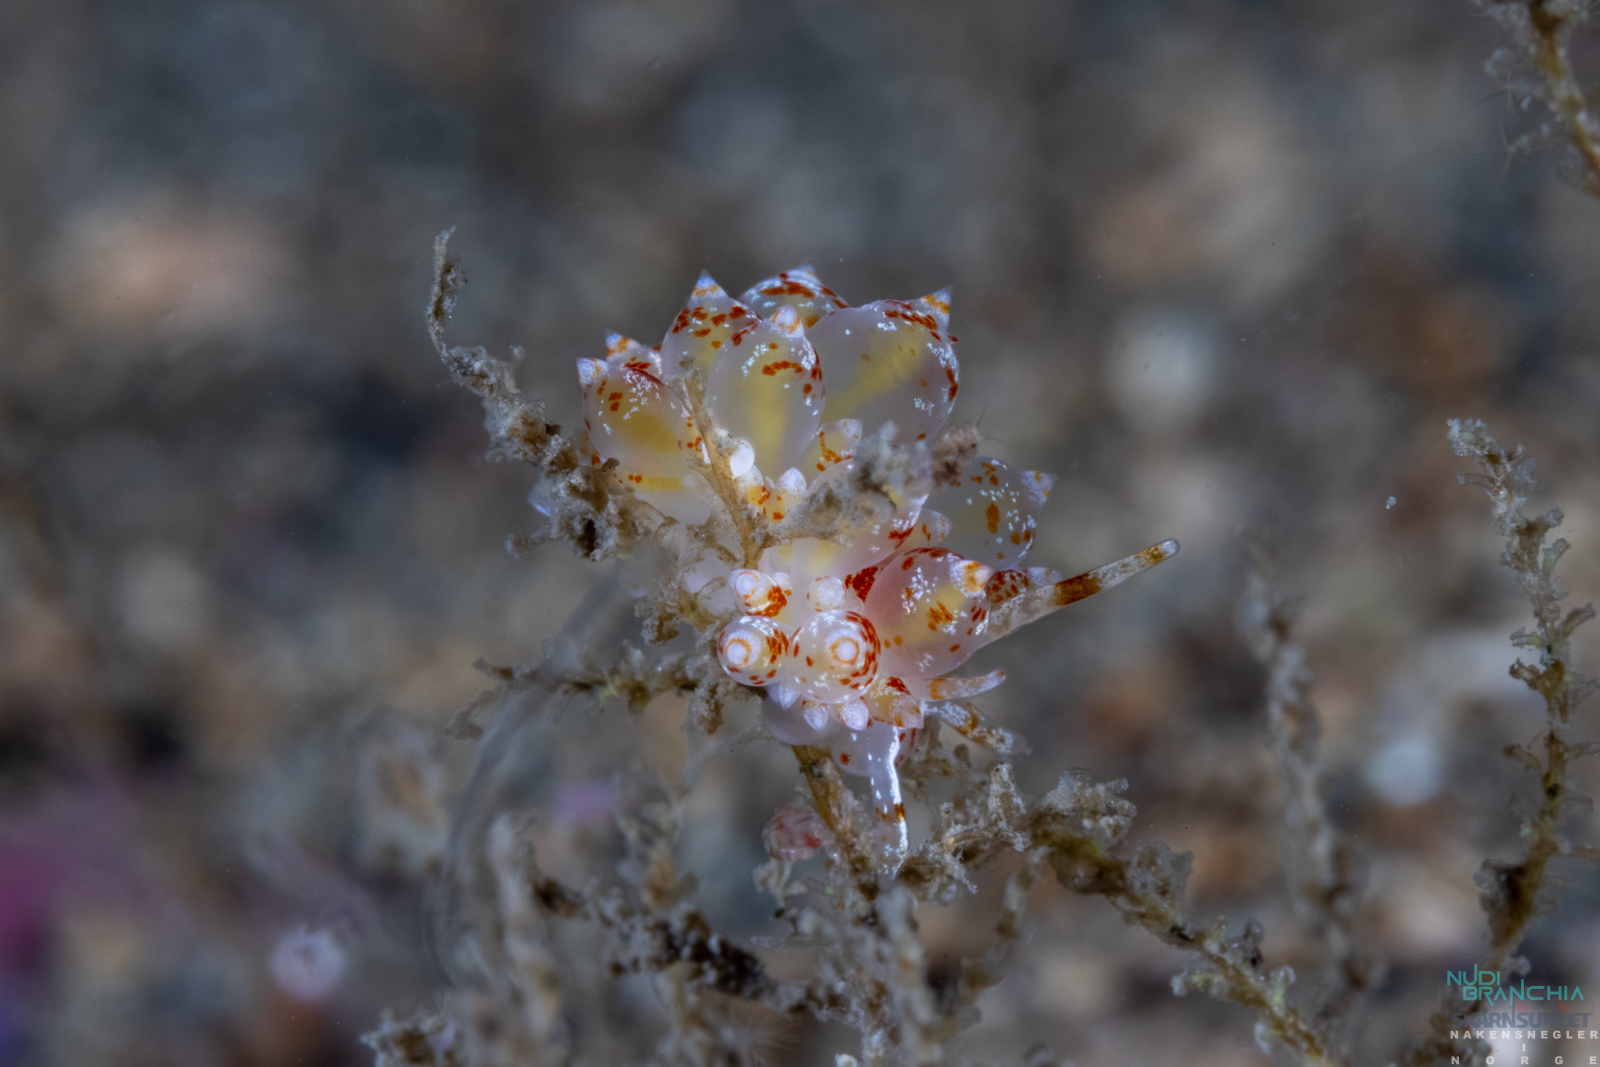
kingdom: Animalia
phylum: Mollusca
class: Gastropoda
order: Nudibranchia
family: Eubranchidae
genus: Amphorina
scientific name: Amphorina pallida
